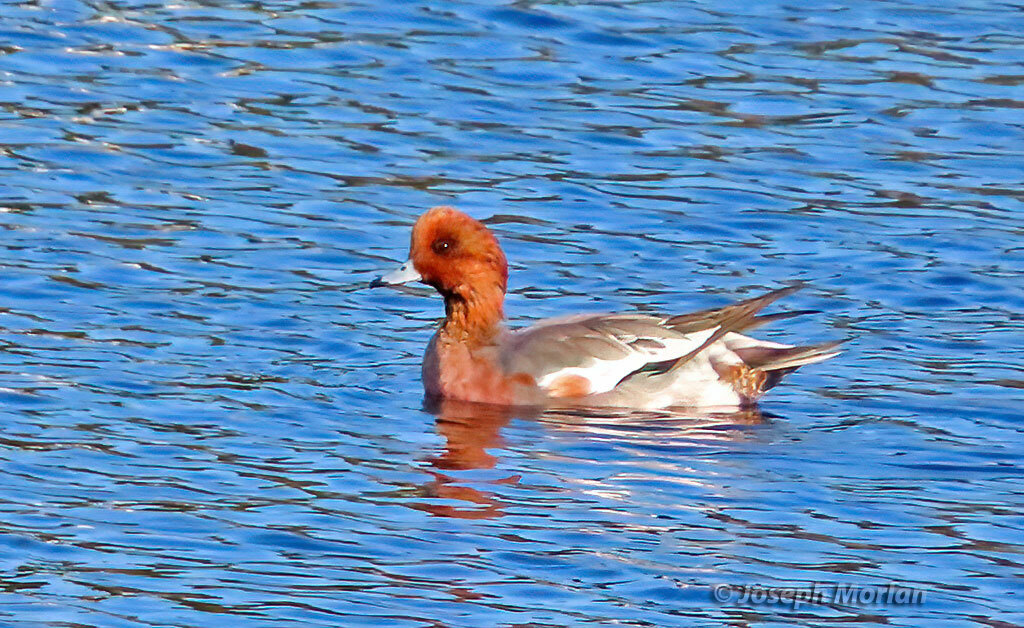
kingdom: Animalia
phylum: Chordata
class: Aves
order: Anseriformes
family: Anatidae
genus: Mareca
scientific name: Mareca penelope
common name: Eurasian wigeon
